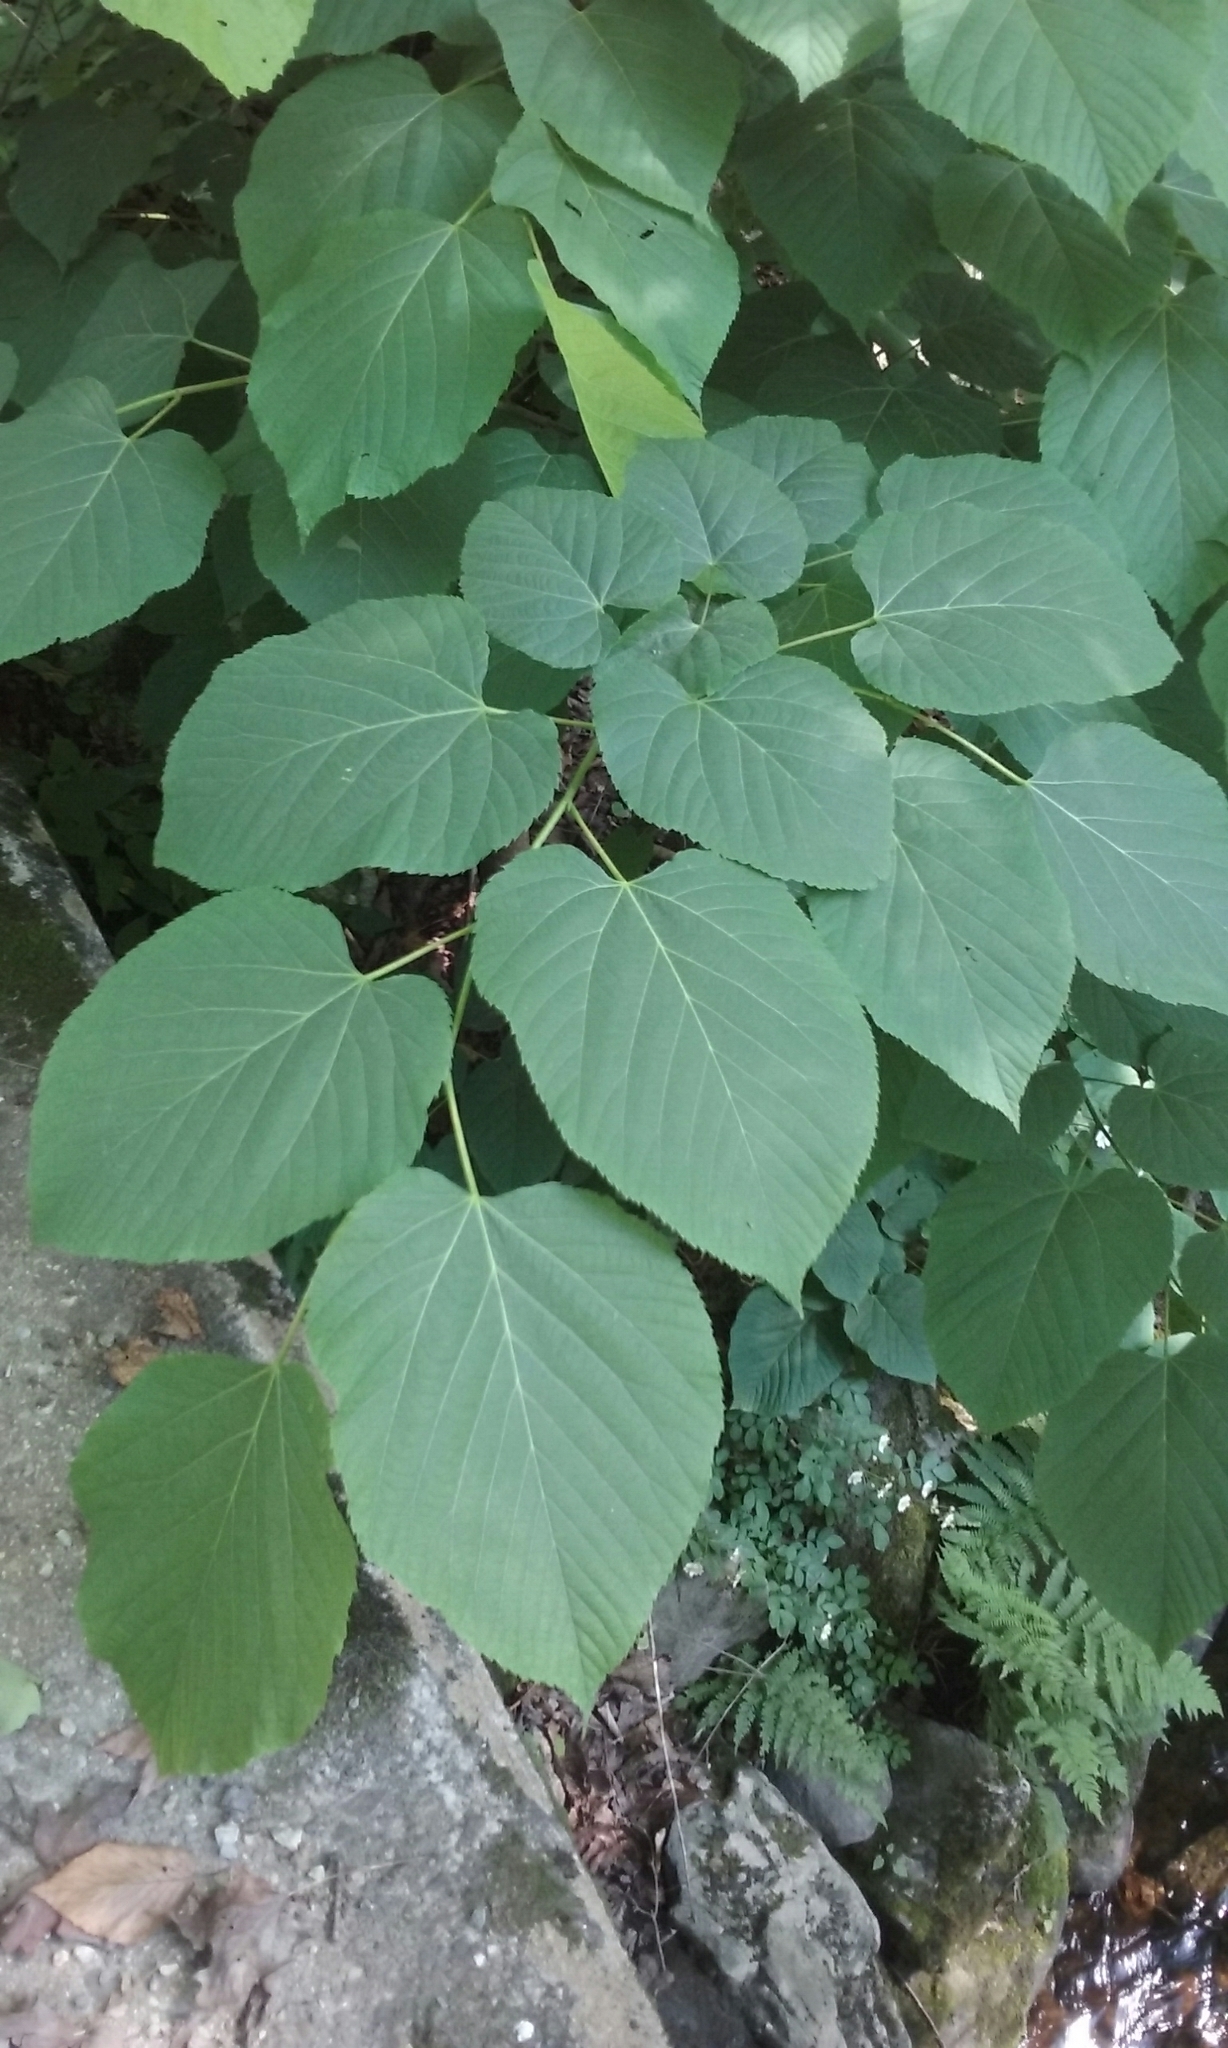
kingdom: Plantae
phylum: Tracheophyta
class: Magnoliopsida
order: Malvales
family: Malvaceae
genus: Tilia
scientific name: Tilia americana
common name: Basswood
